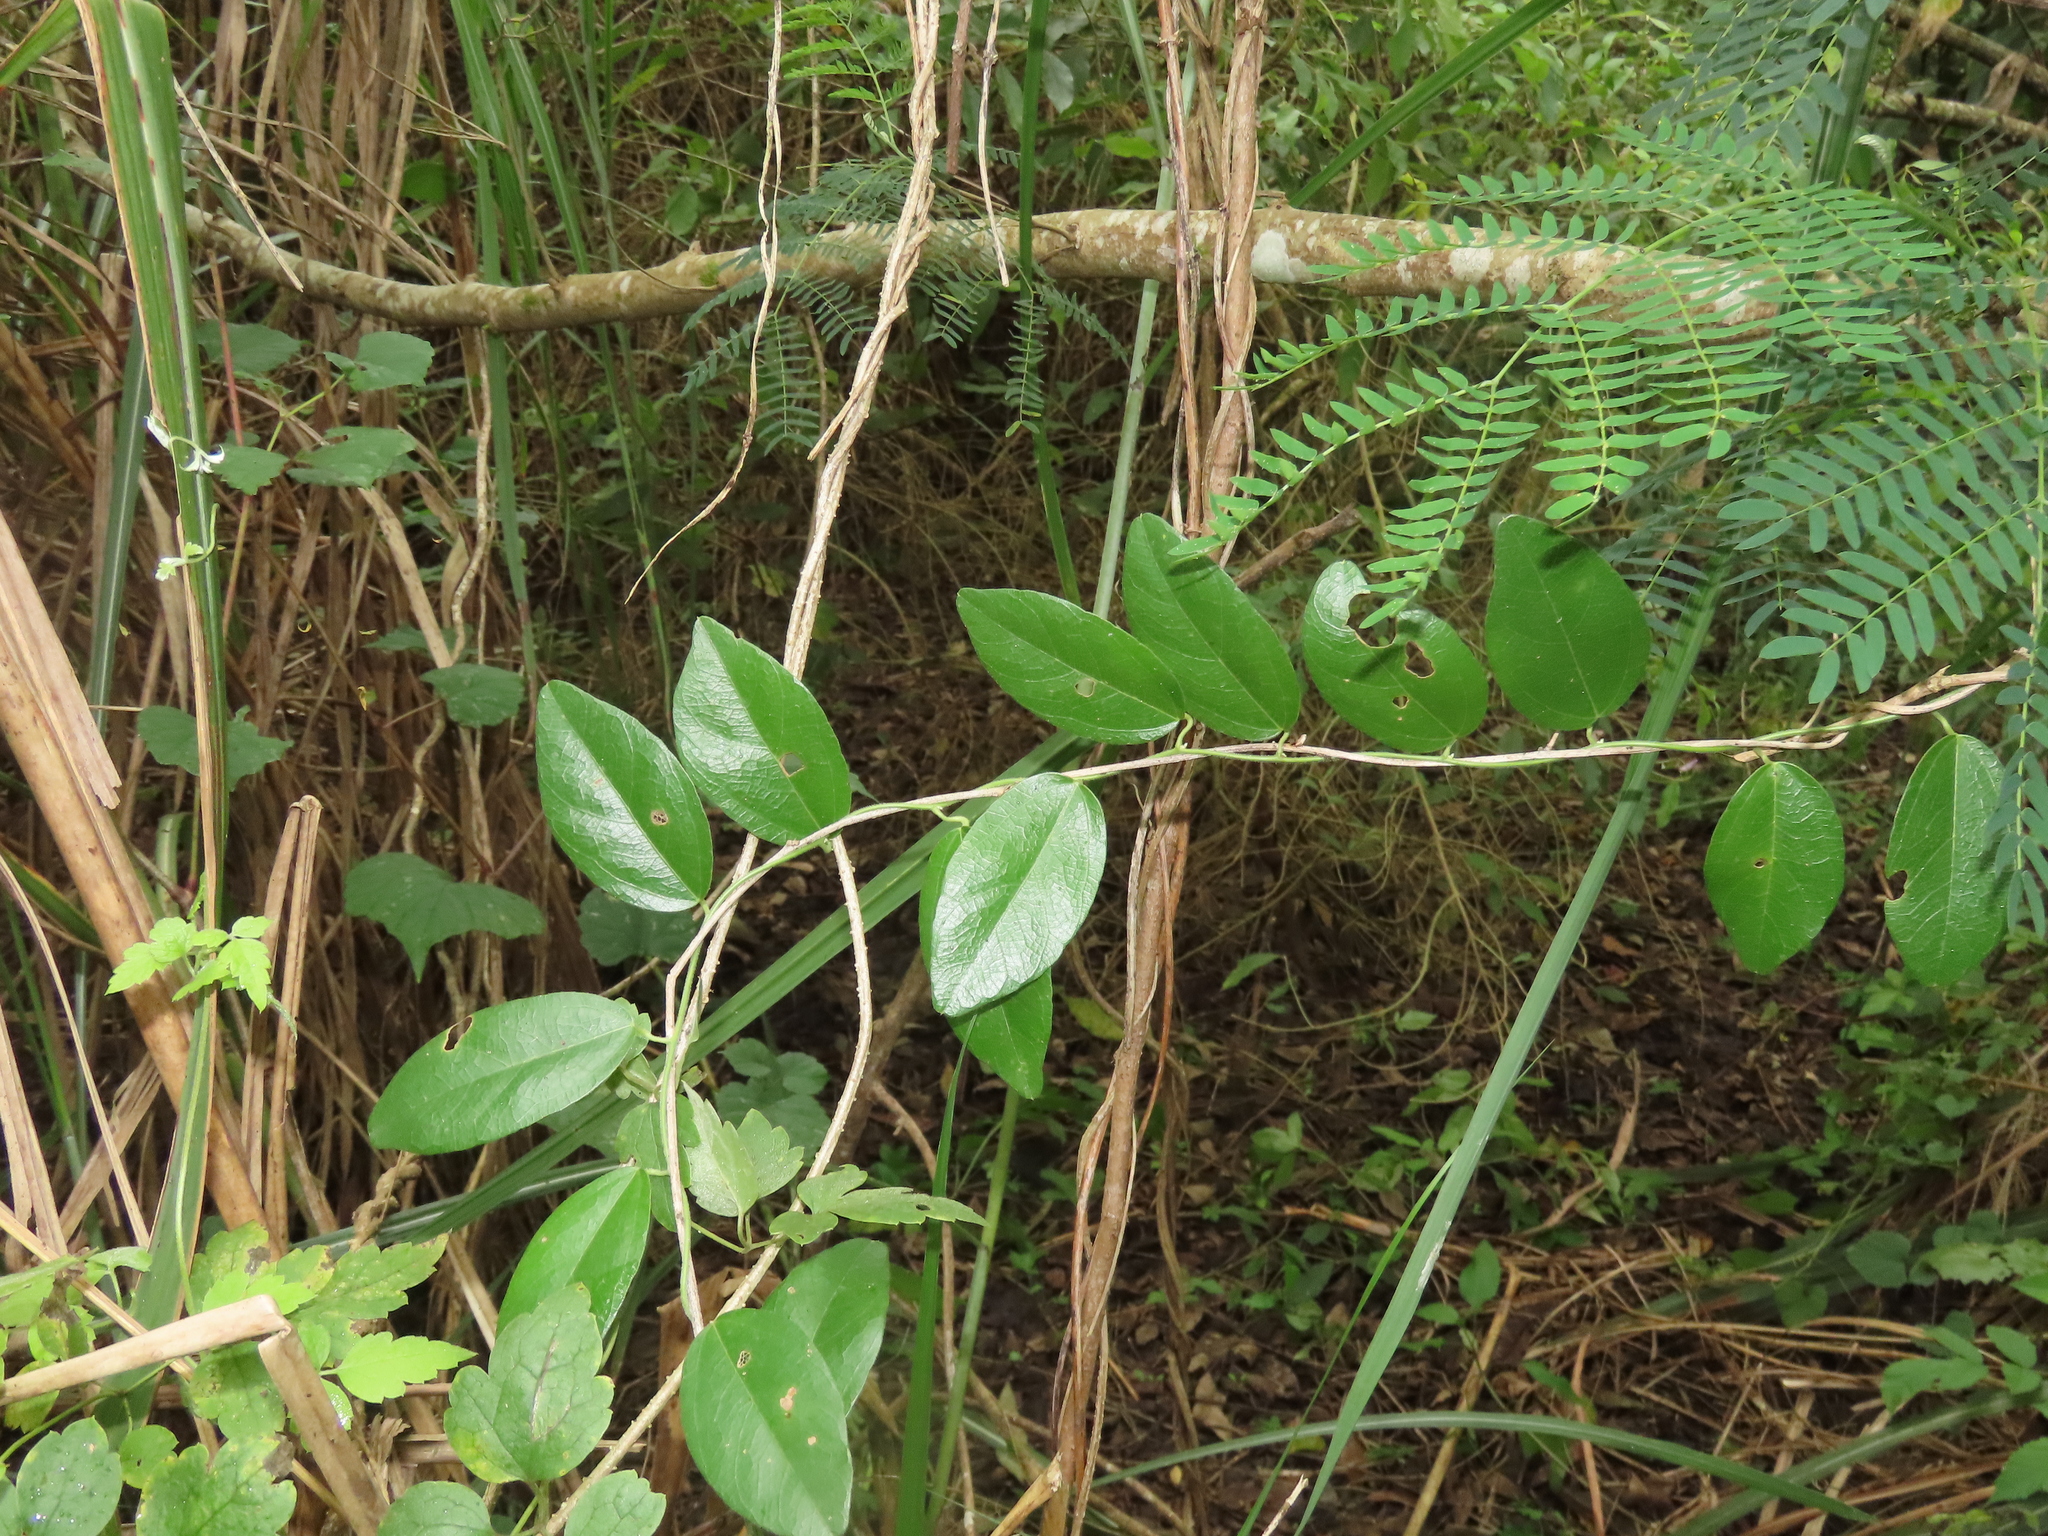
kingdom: Plantae
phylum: Tracheophyta
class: Magnoliopsida
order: Ranunculales
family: Menispermaceae
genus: Cocculus
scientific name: Cocculus orbiculatus
